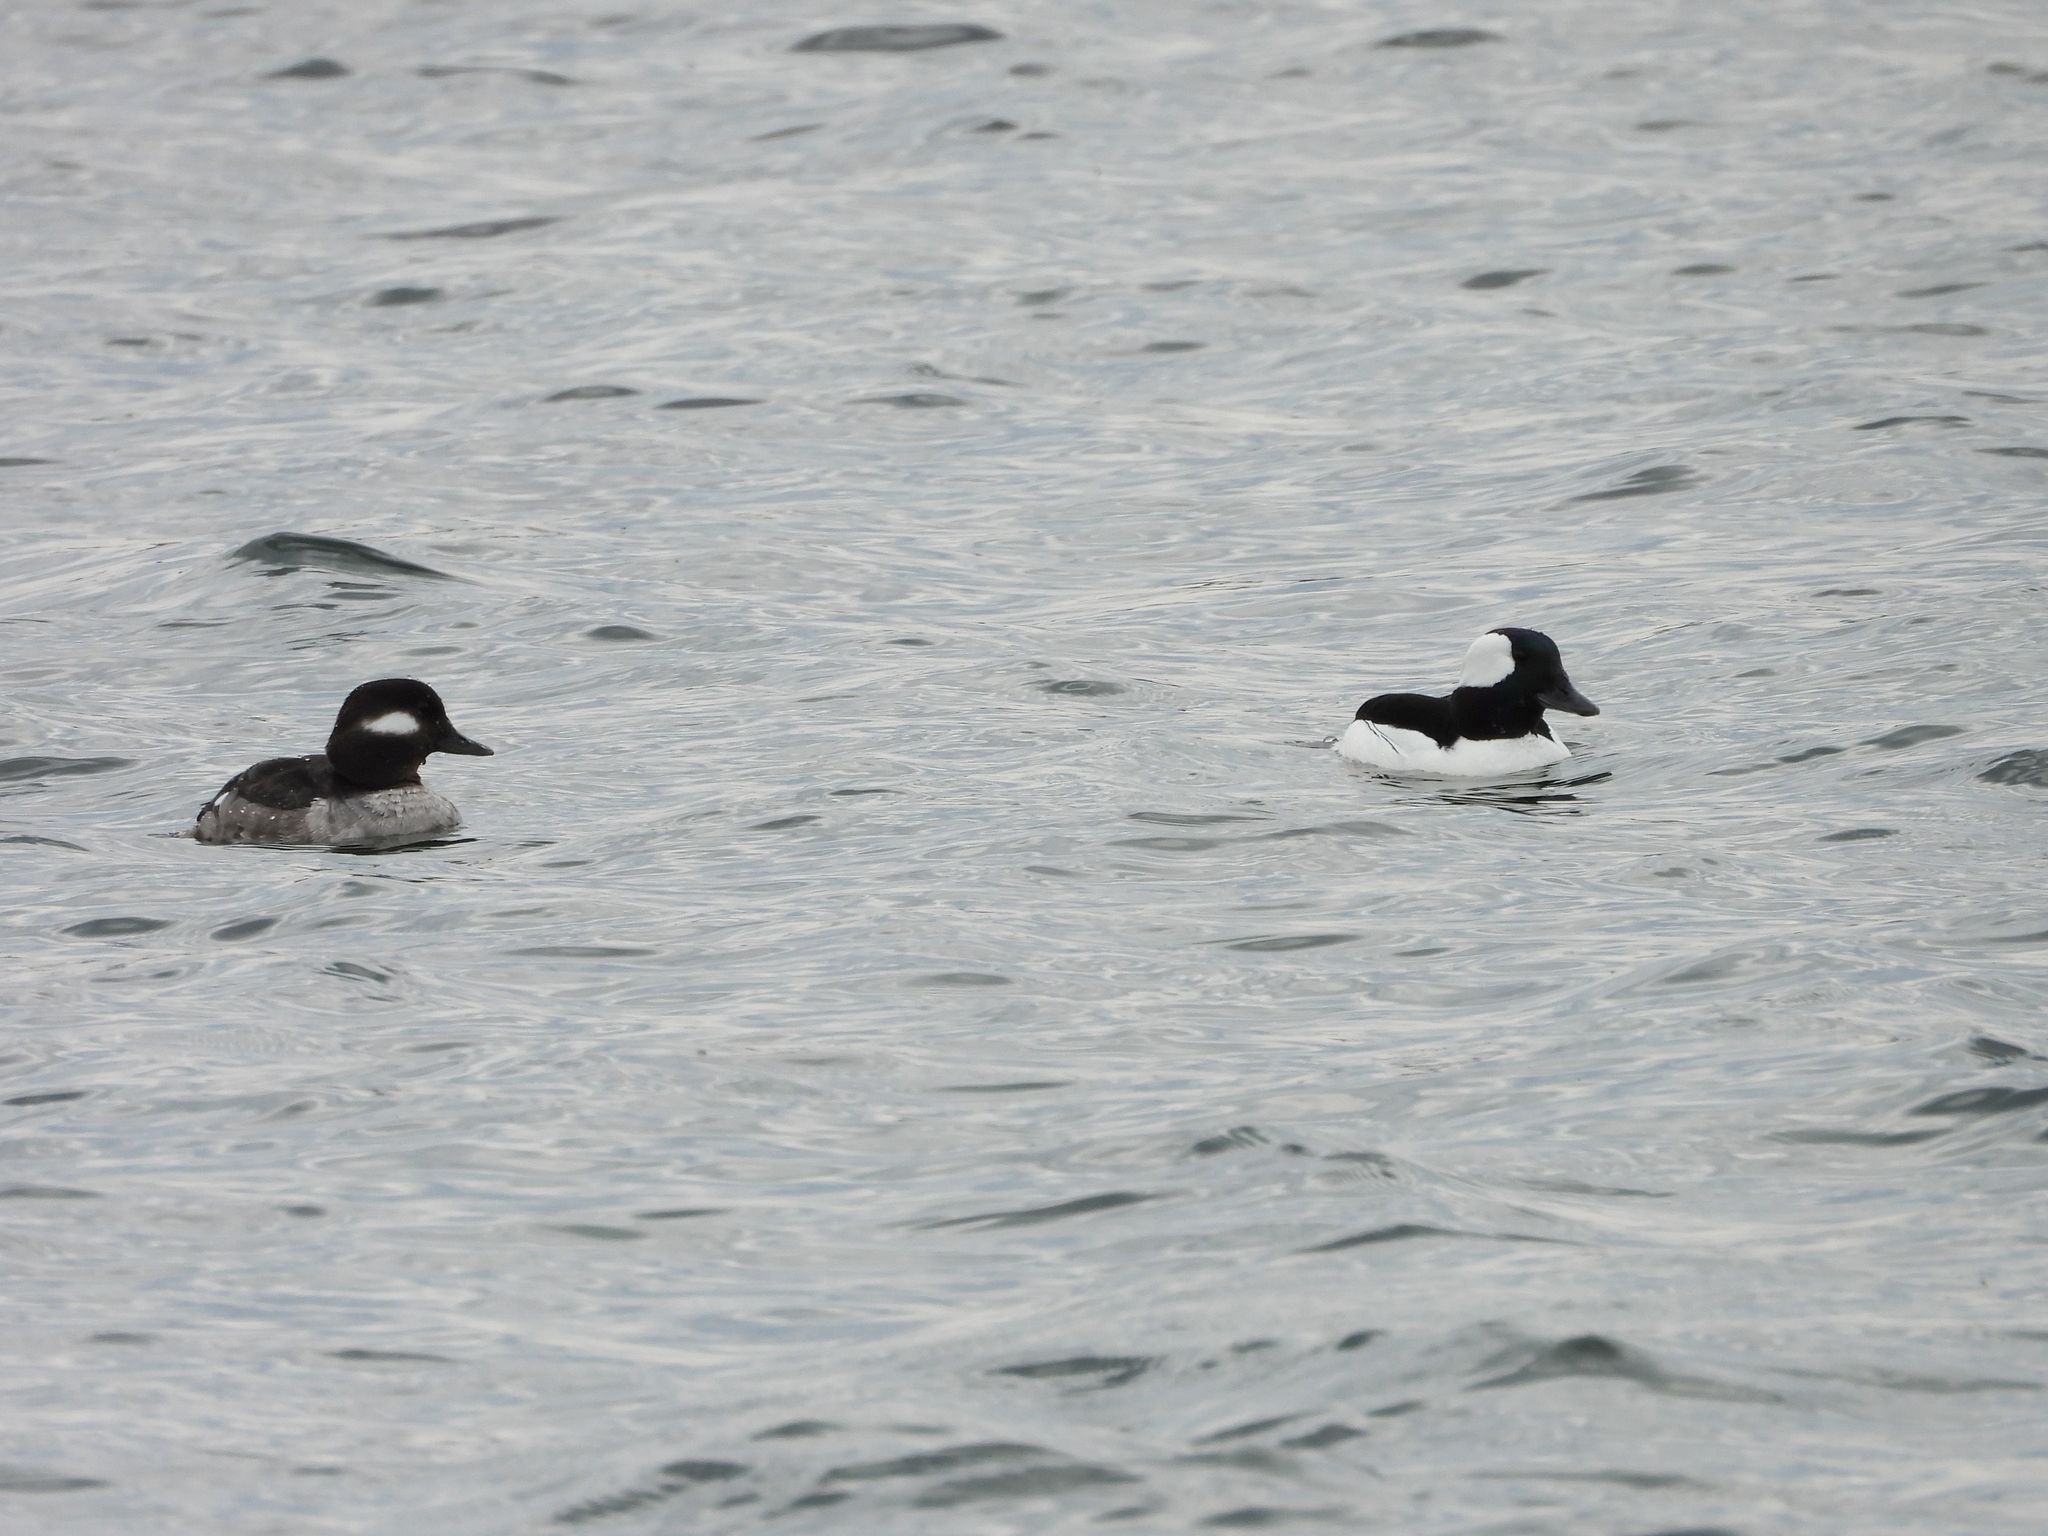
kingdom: Animalia
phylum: Chordata
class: Aves
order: Anseriformes
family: Anatidae
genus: Bucephala
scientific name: Bucephala albeola
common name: Bufflehead
